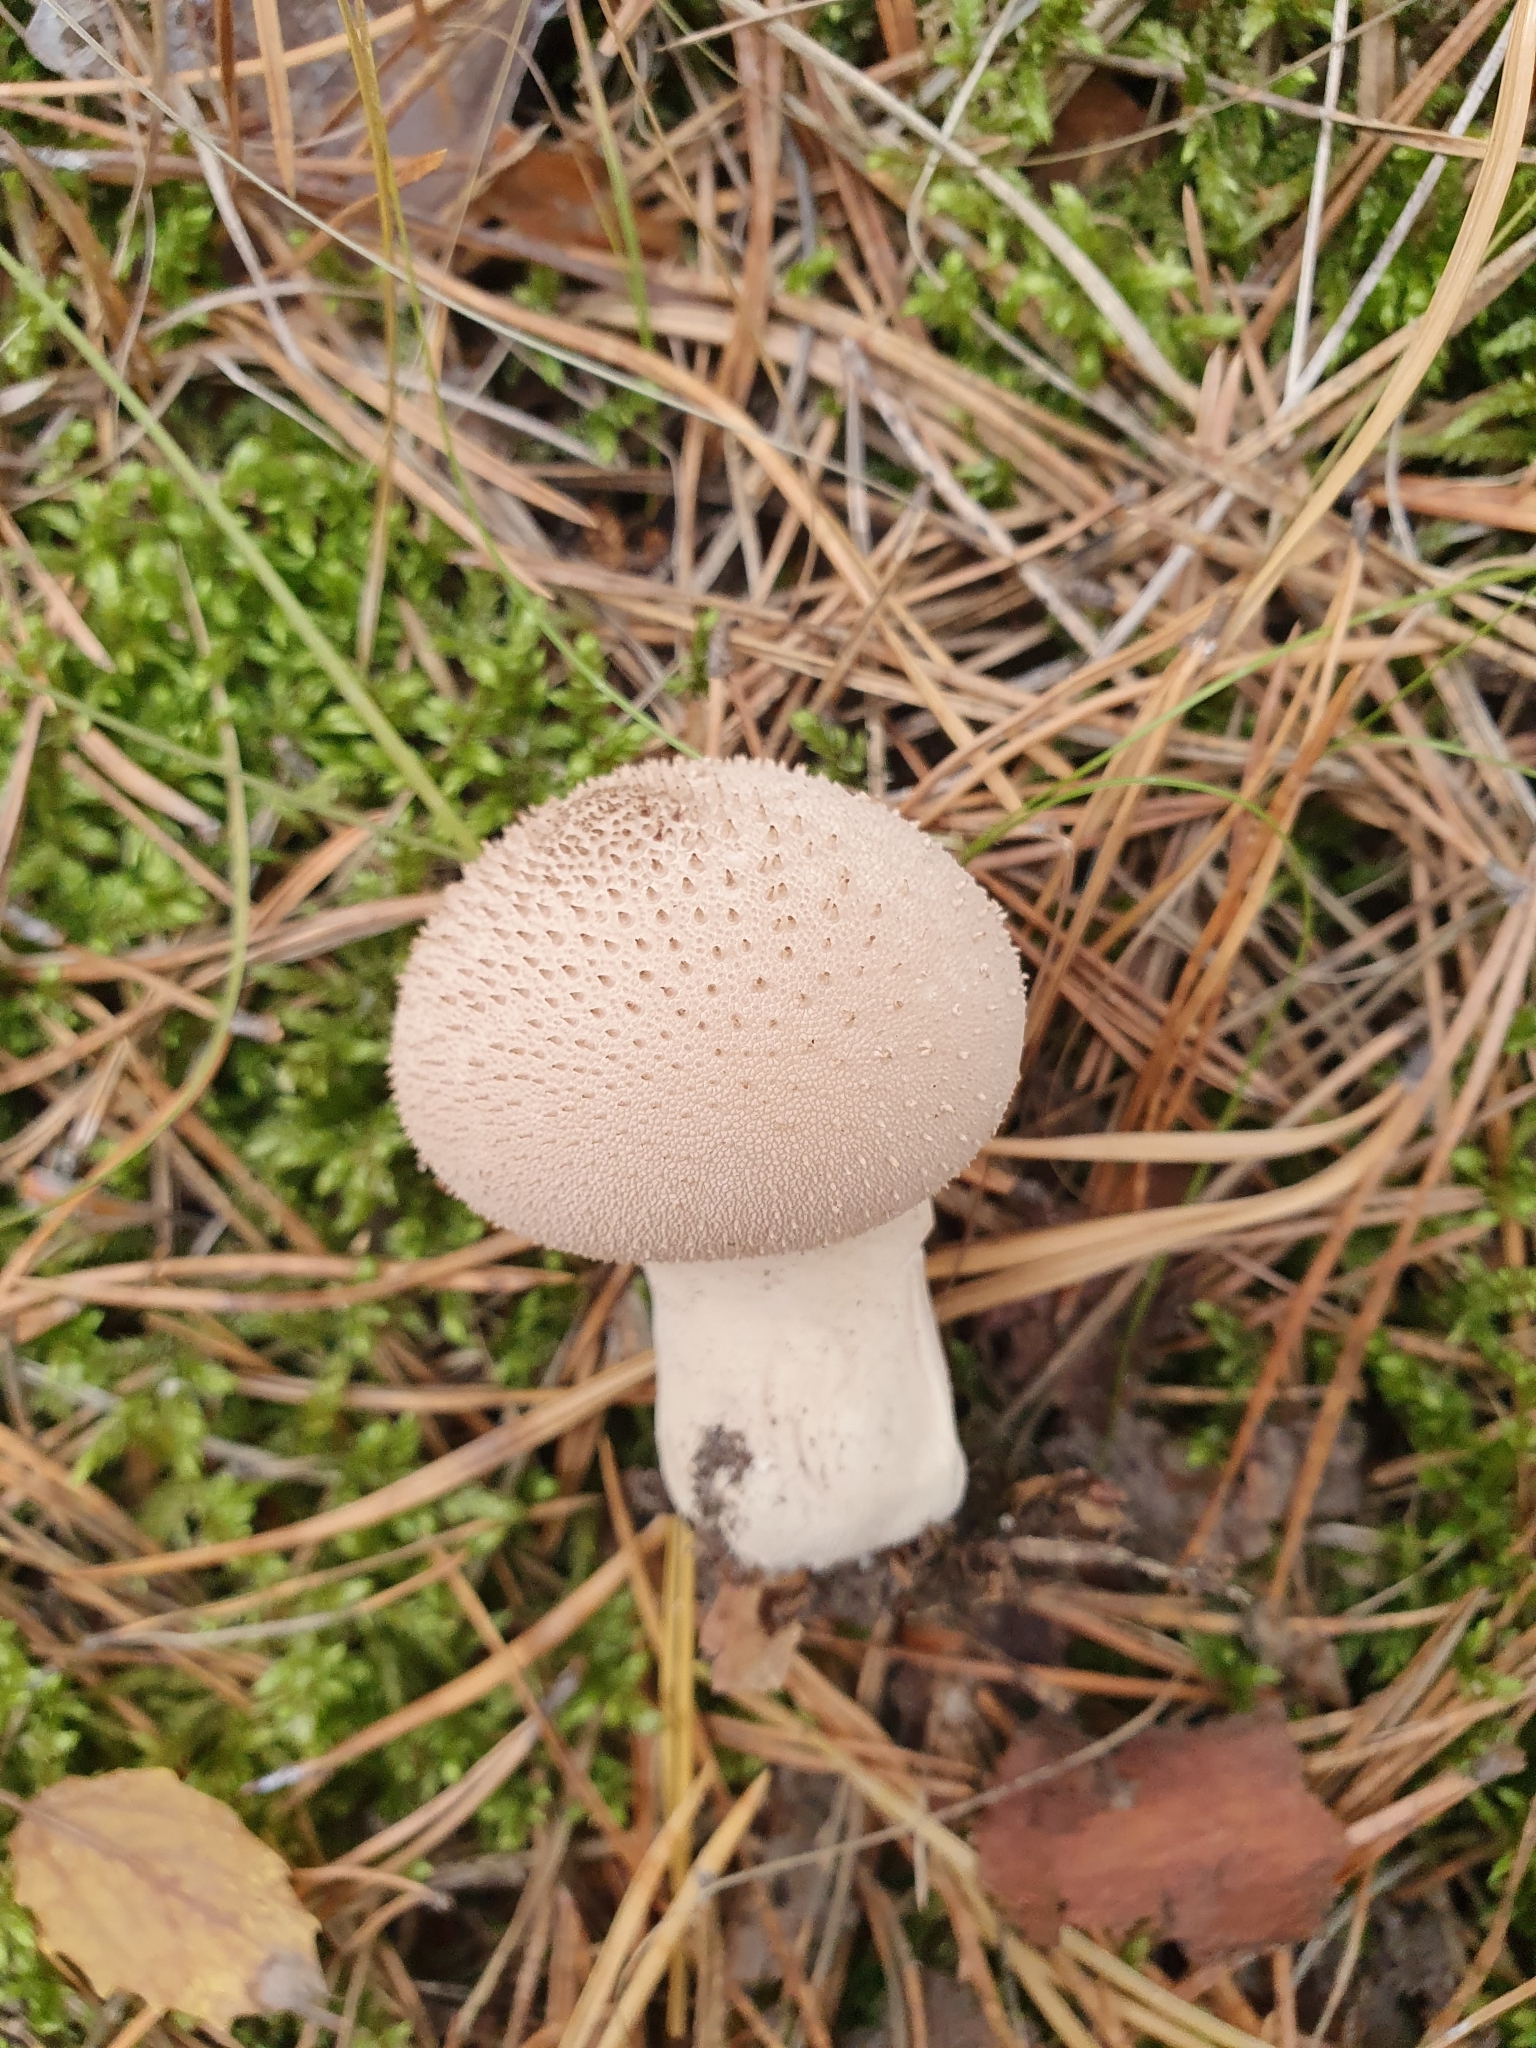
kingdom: Fungi
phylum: Basidiomycota
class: Agaricomycetes
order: Agaricales
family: Lycoperdaceae
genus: Lycoperdon
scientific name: Lycoperdon perlatum
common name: Common puffball
